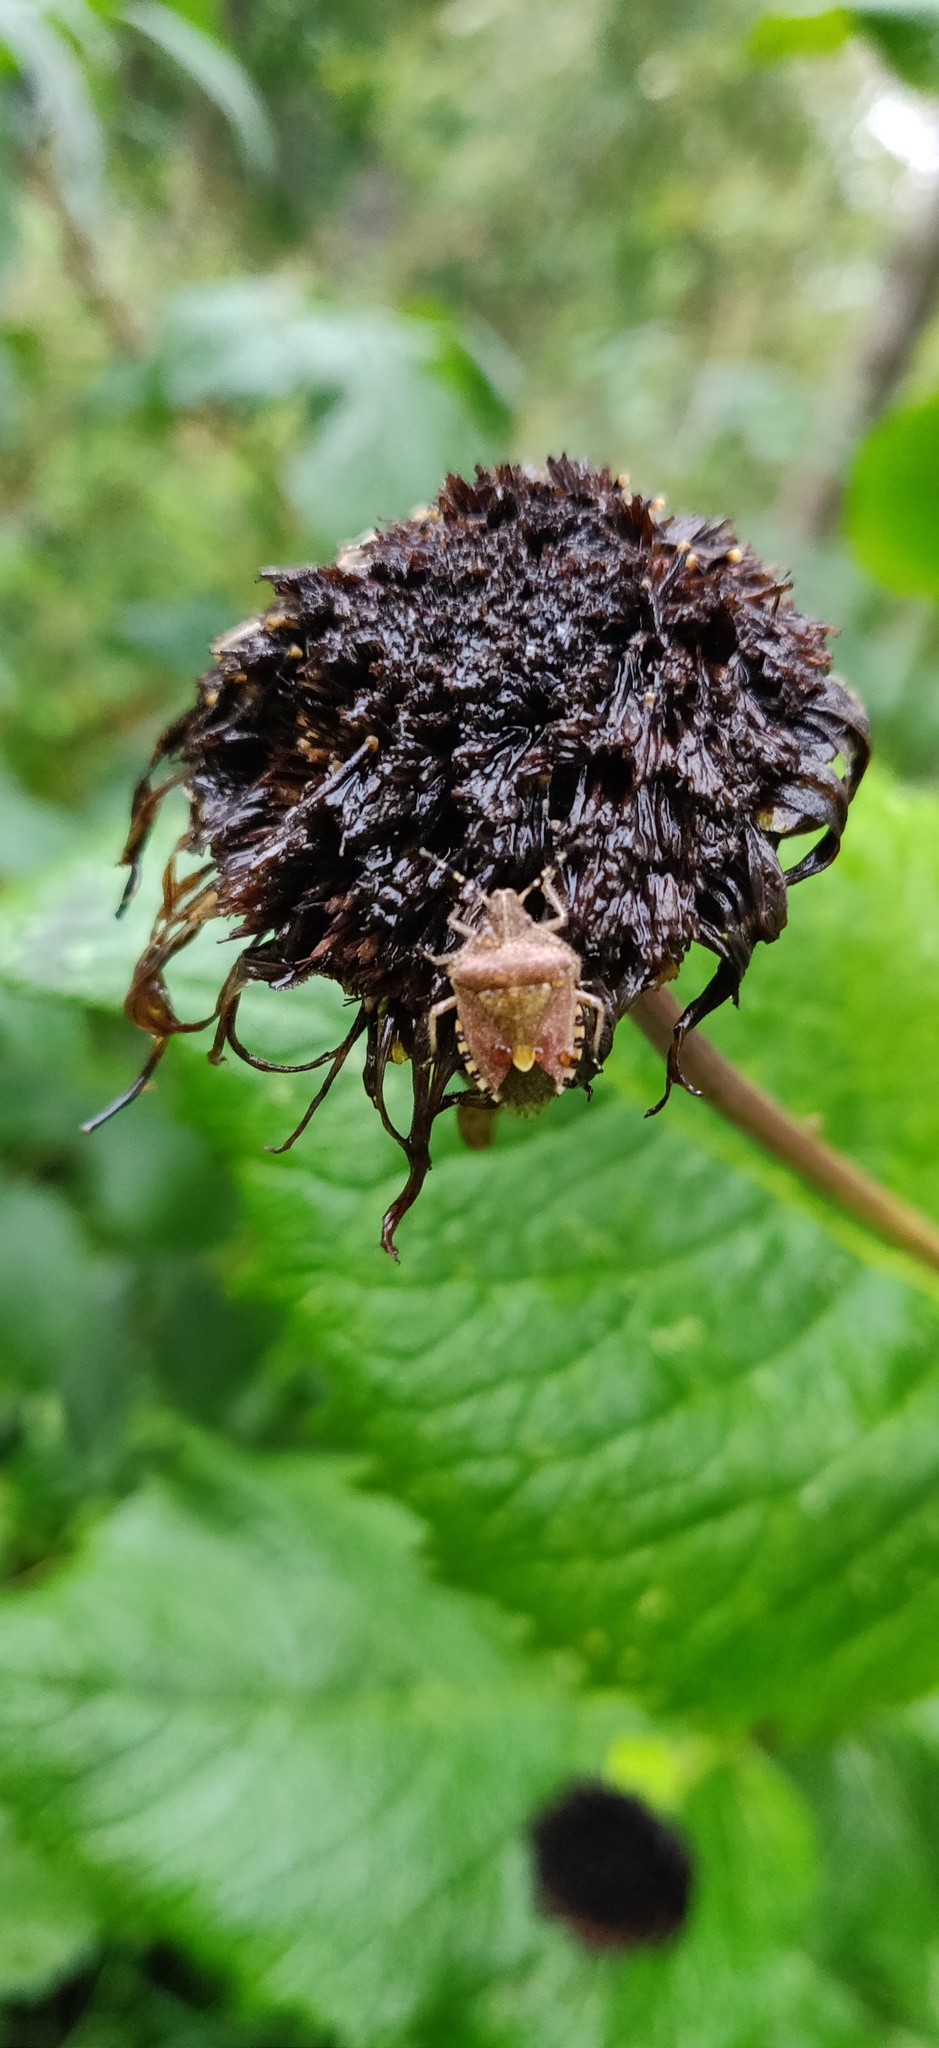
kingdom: Animalia
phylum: Arthropoda
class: Insecta
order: Hemiptera
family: Pentatomidae
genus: Dolycoris
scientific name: Dolycoris baccarum
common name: Sloe bug
